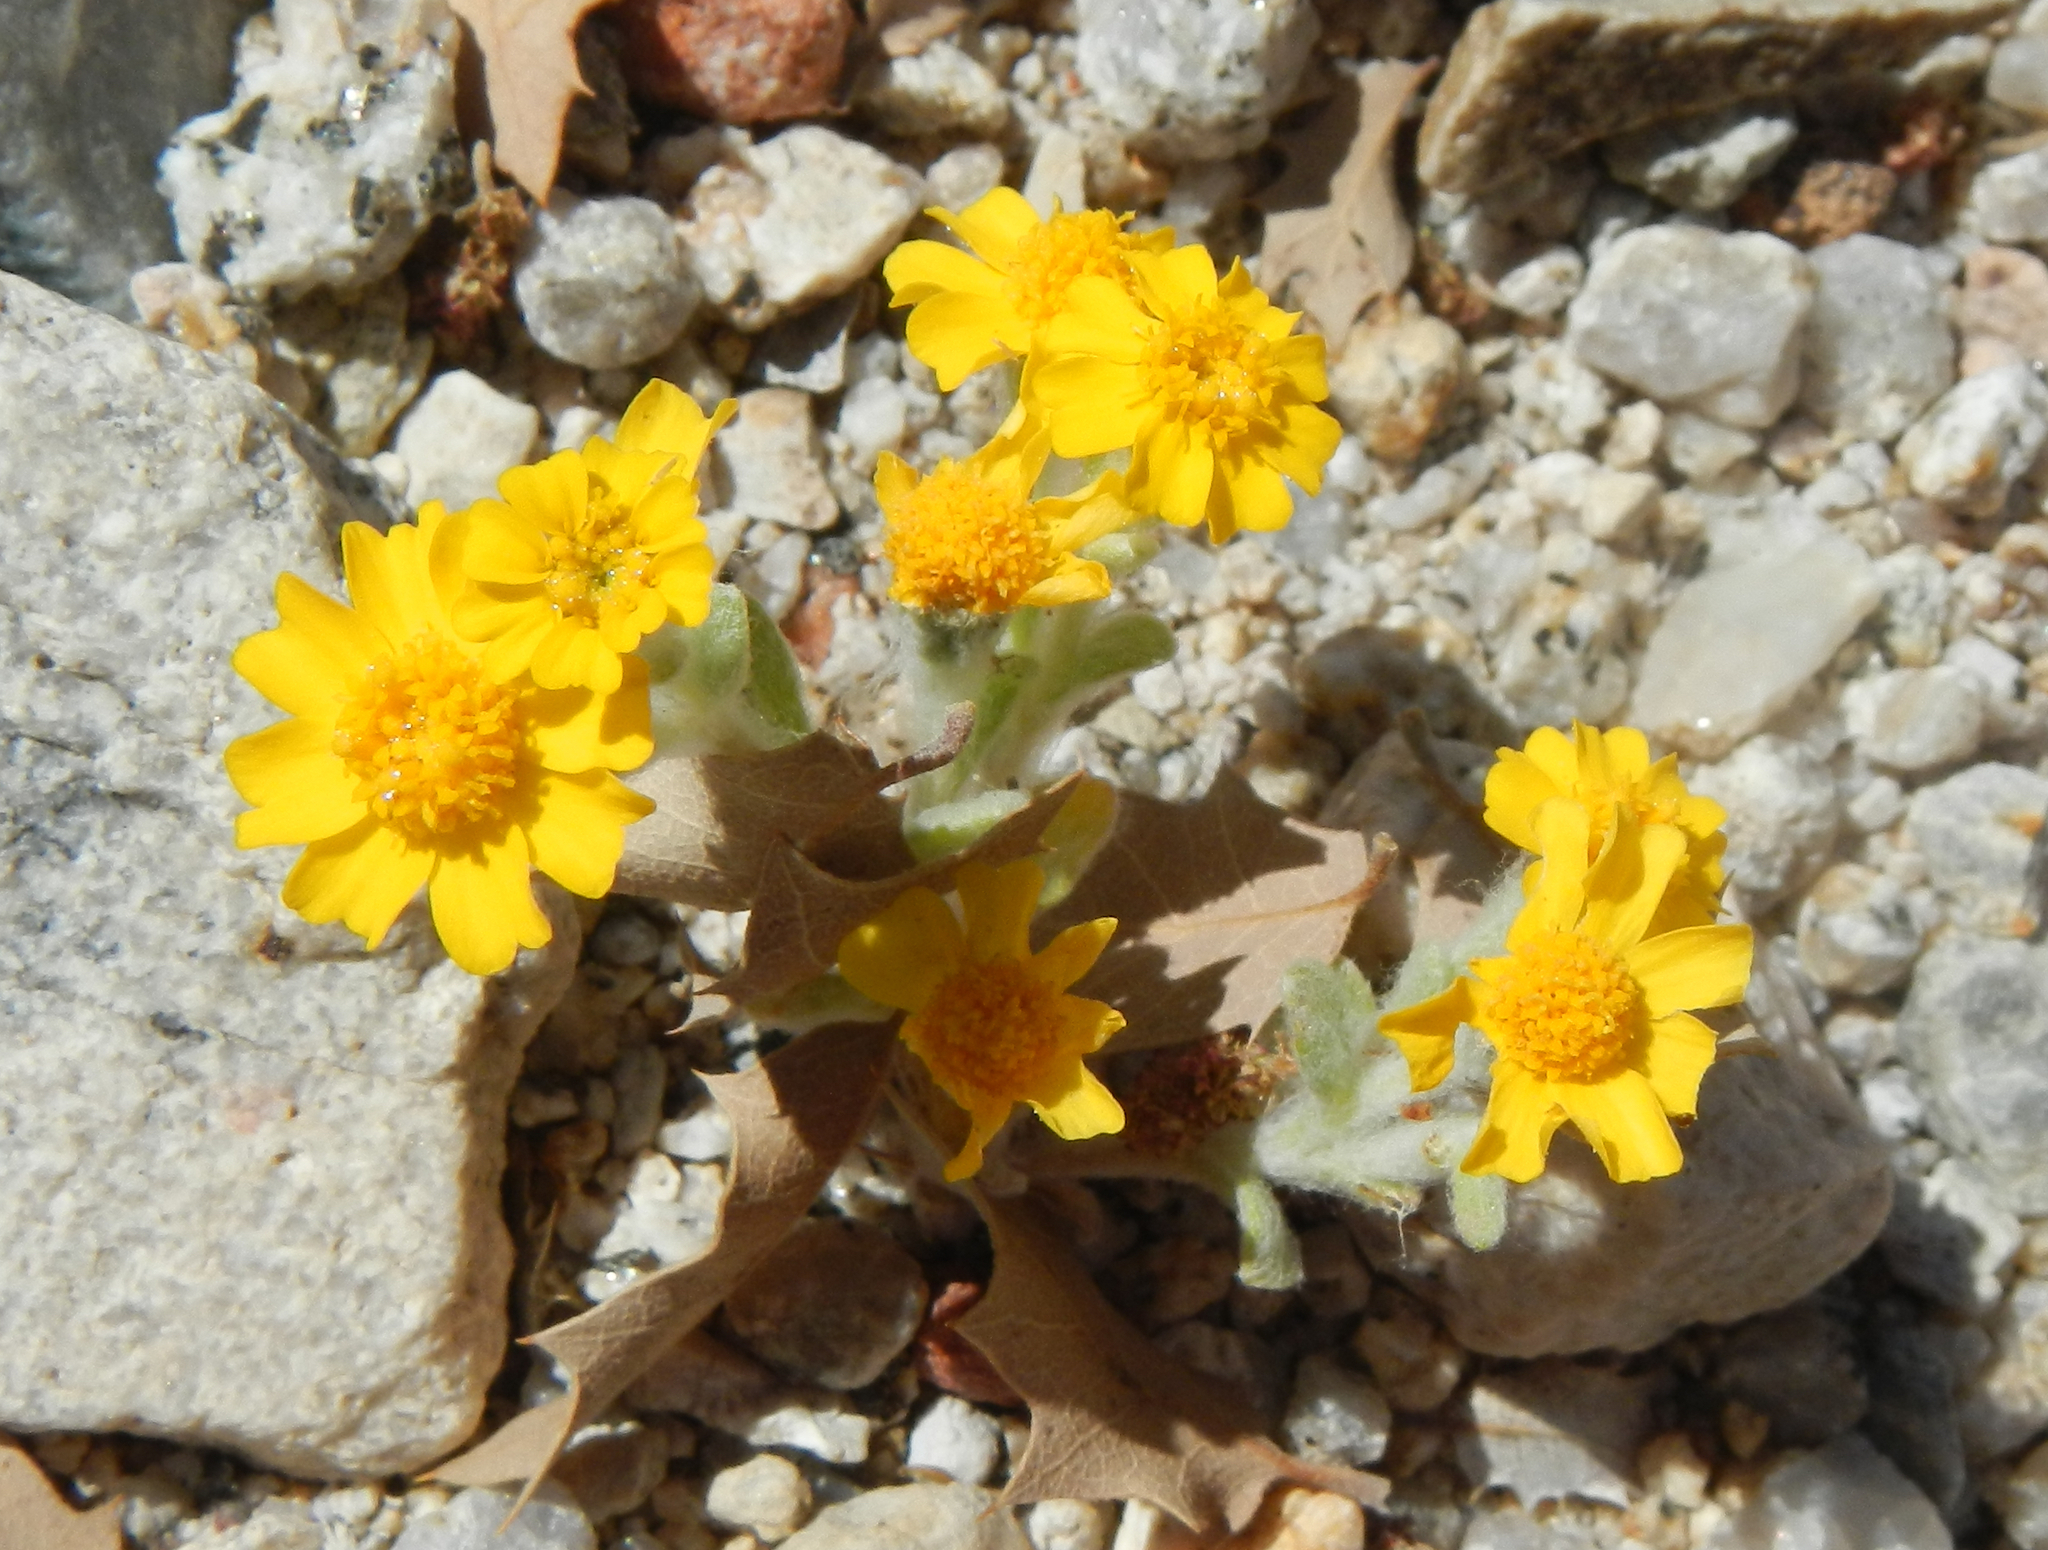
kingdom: Plantae
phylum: Tracheophyta
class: Magnoliopsida
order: Asterales
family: Asteraceae
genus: Eriophyllum
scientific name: Eriophyllum wallacei
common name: Wallace's woolly daisy
